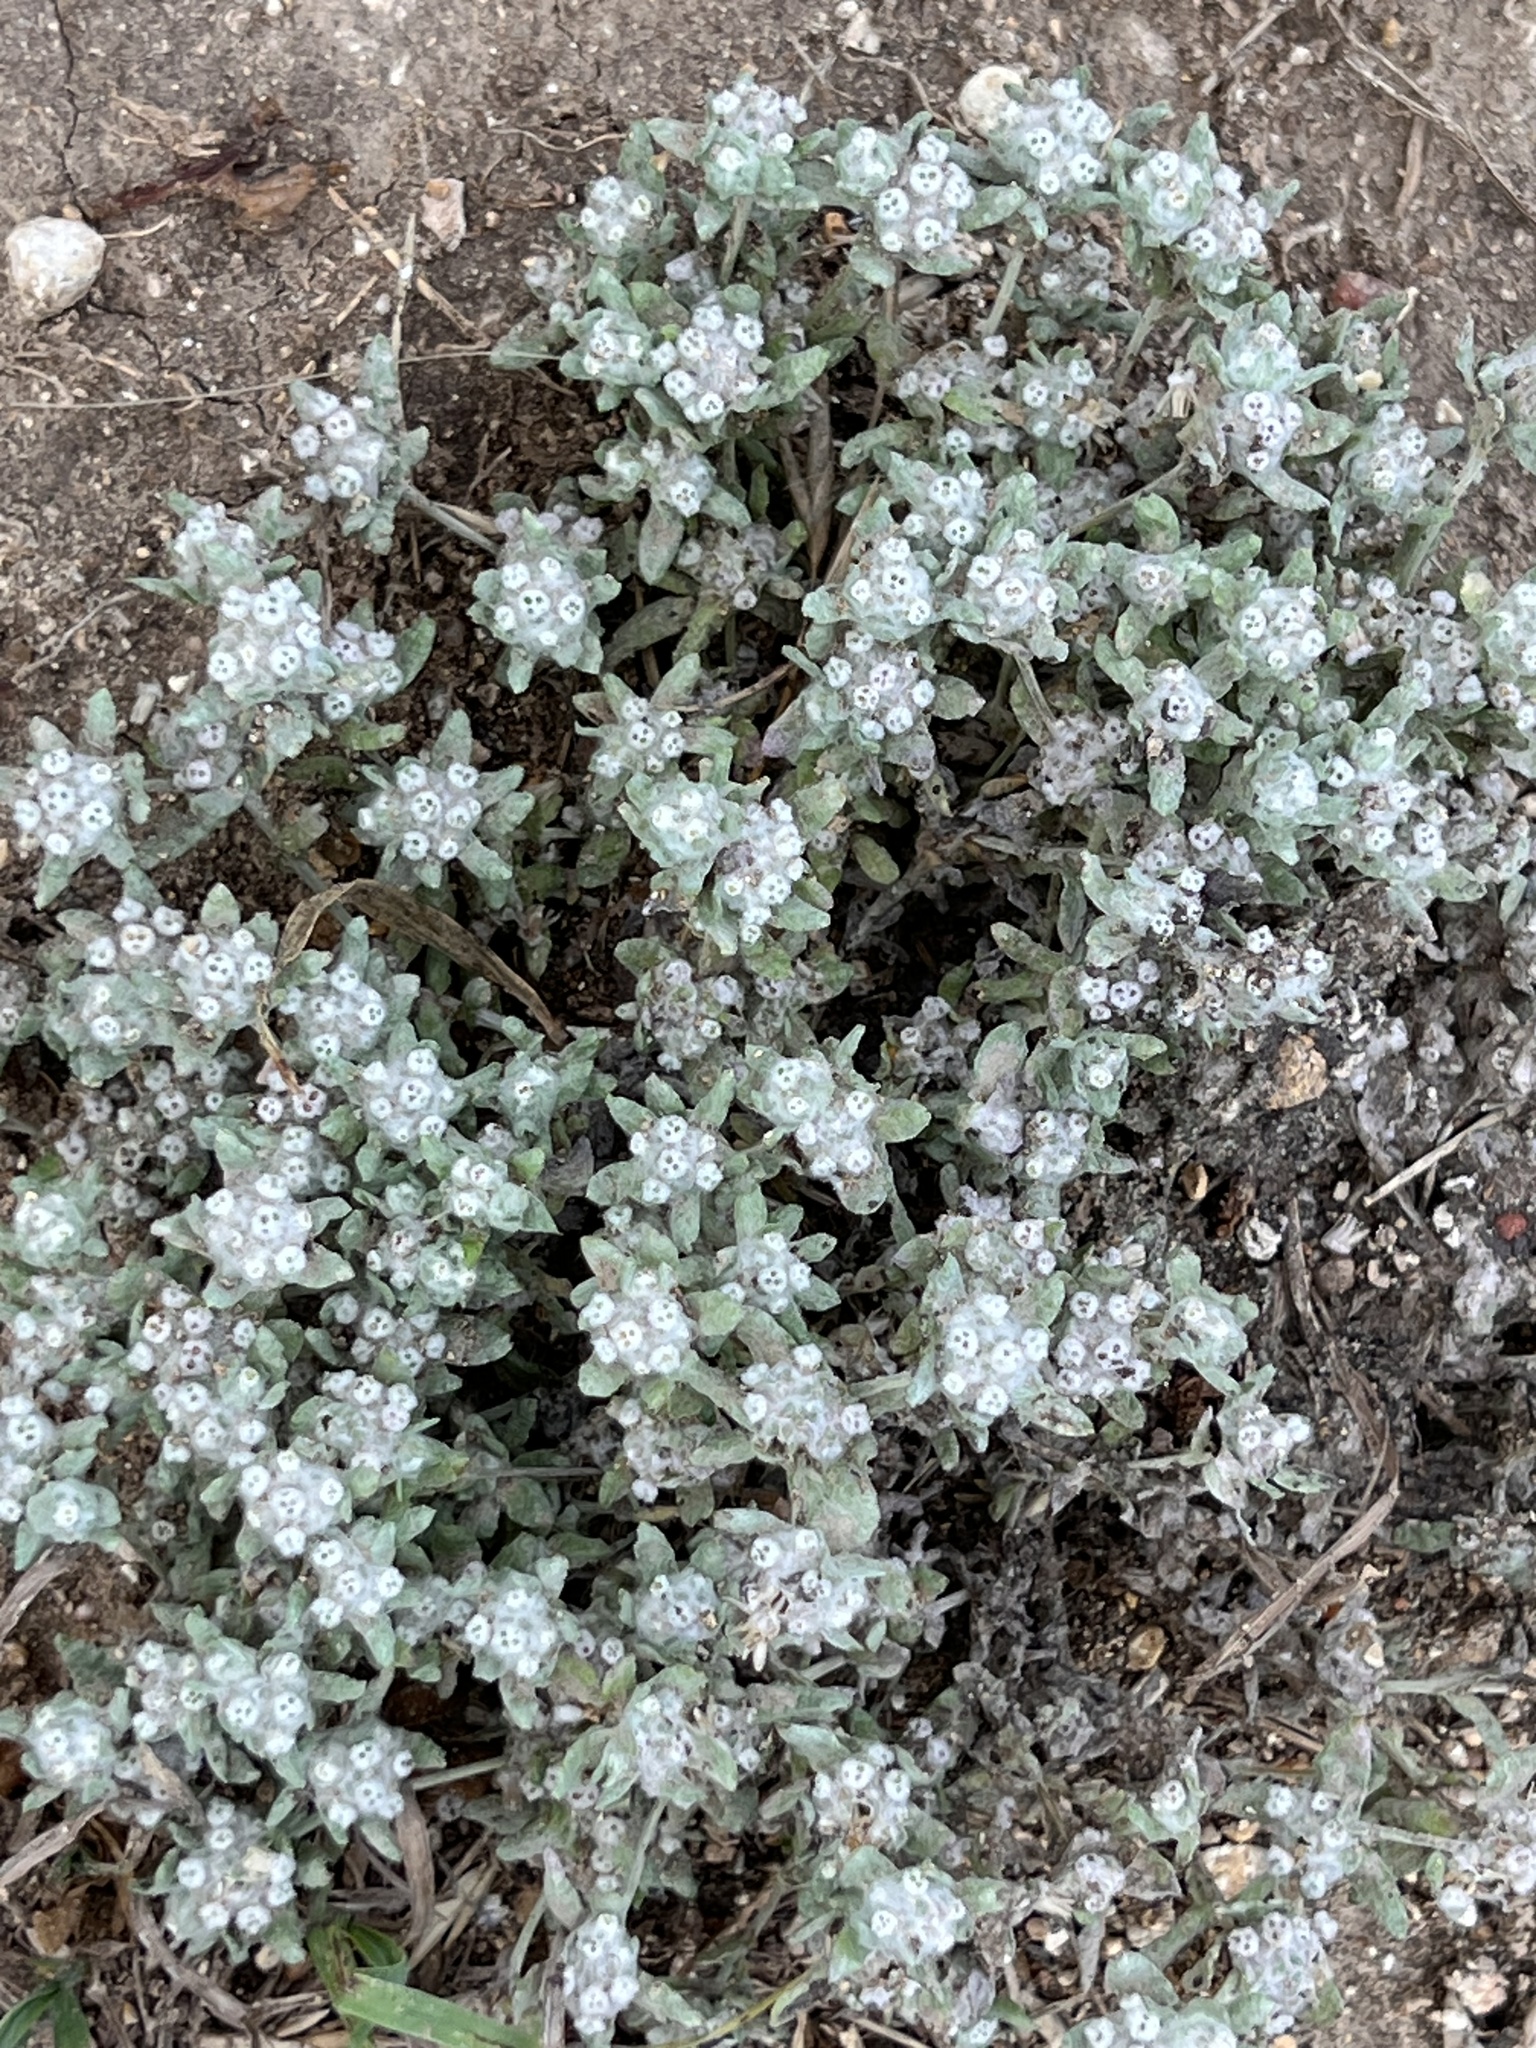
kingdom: Plantae
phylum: Tracheophyta
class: Magnoliopsida
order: Asterales
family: Asteraceae
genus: Diaperia
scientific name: Diaperia verna
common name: Many-stem rabbit-tobacco
